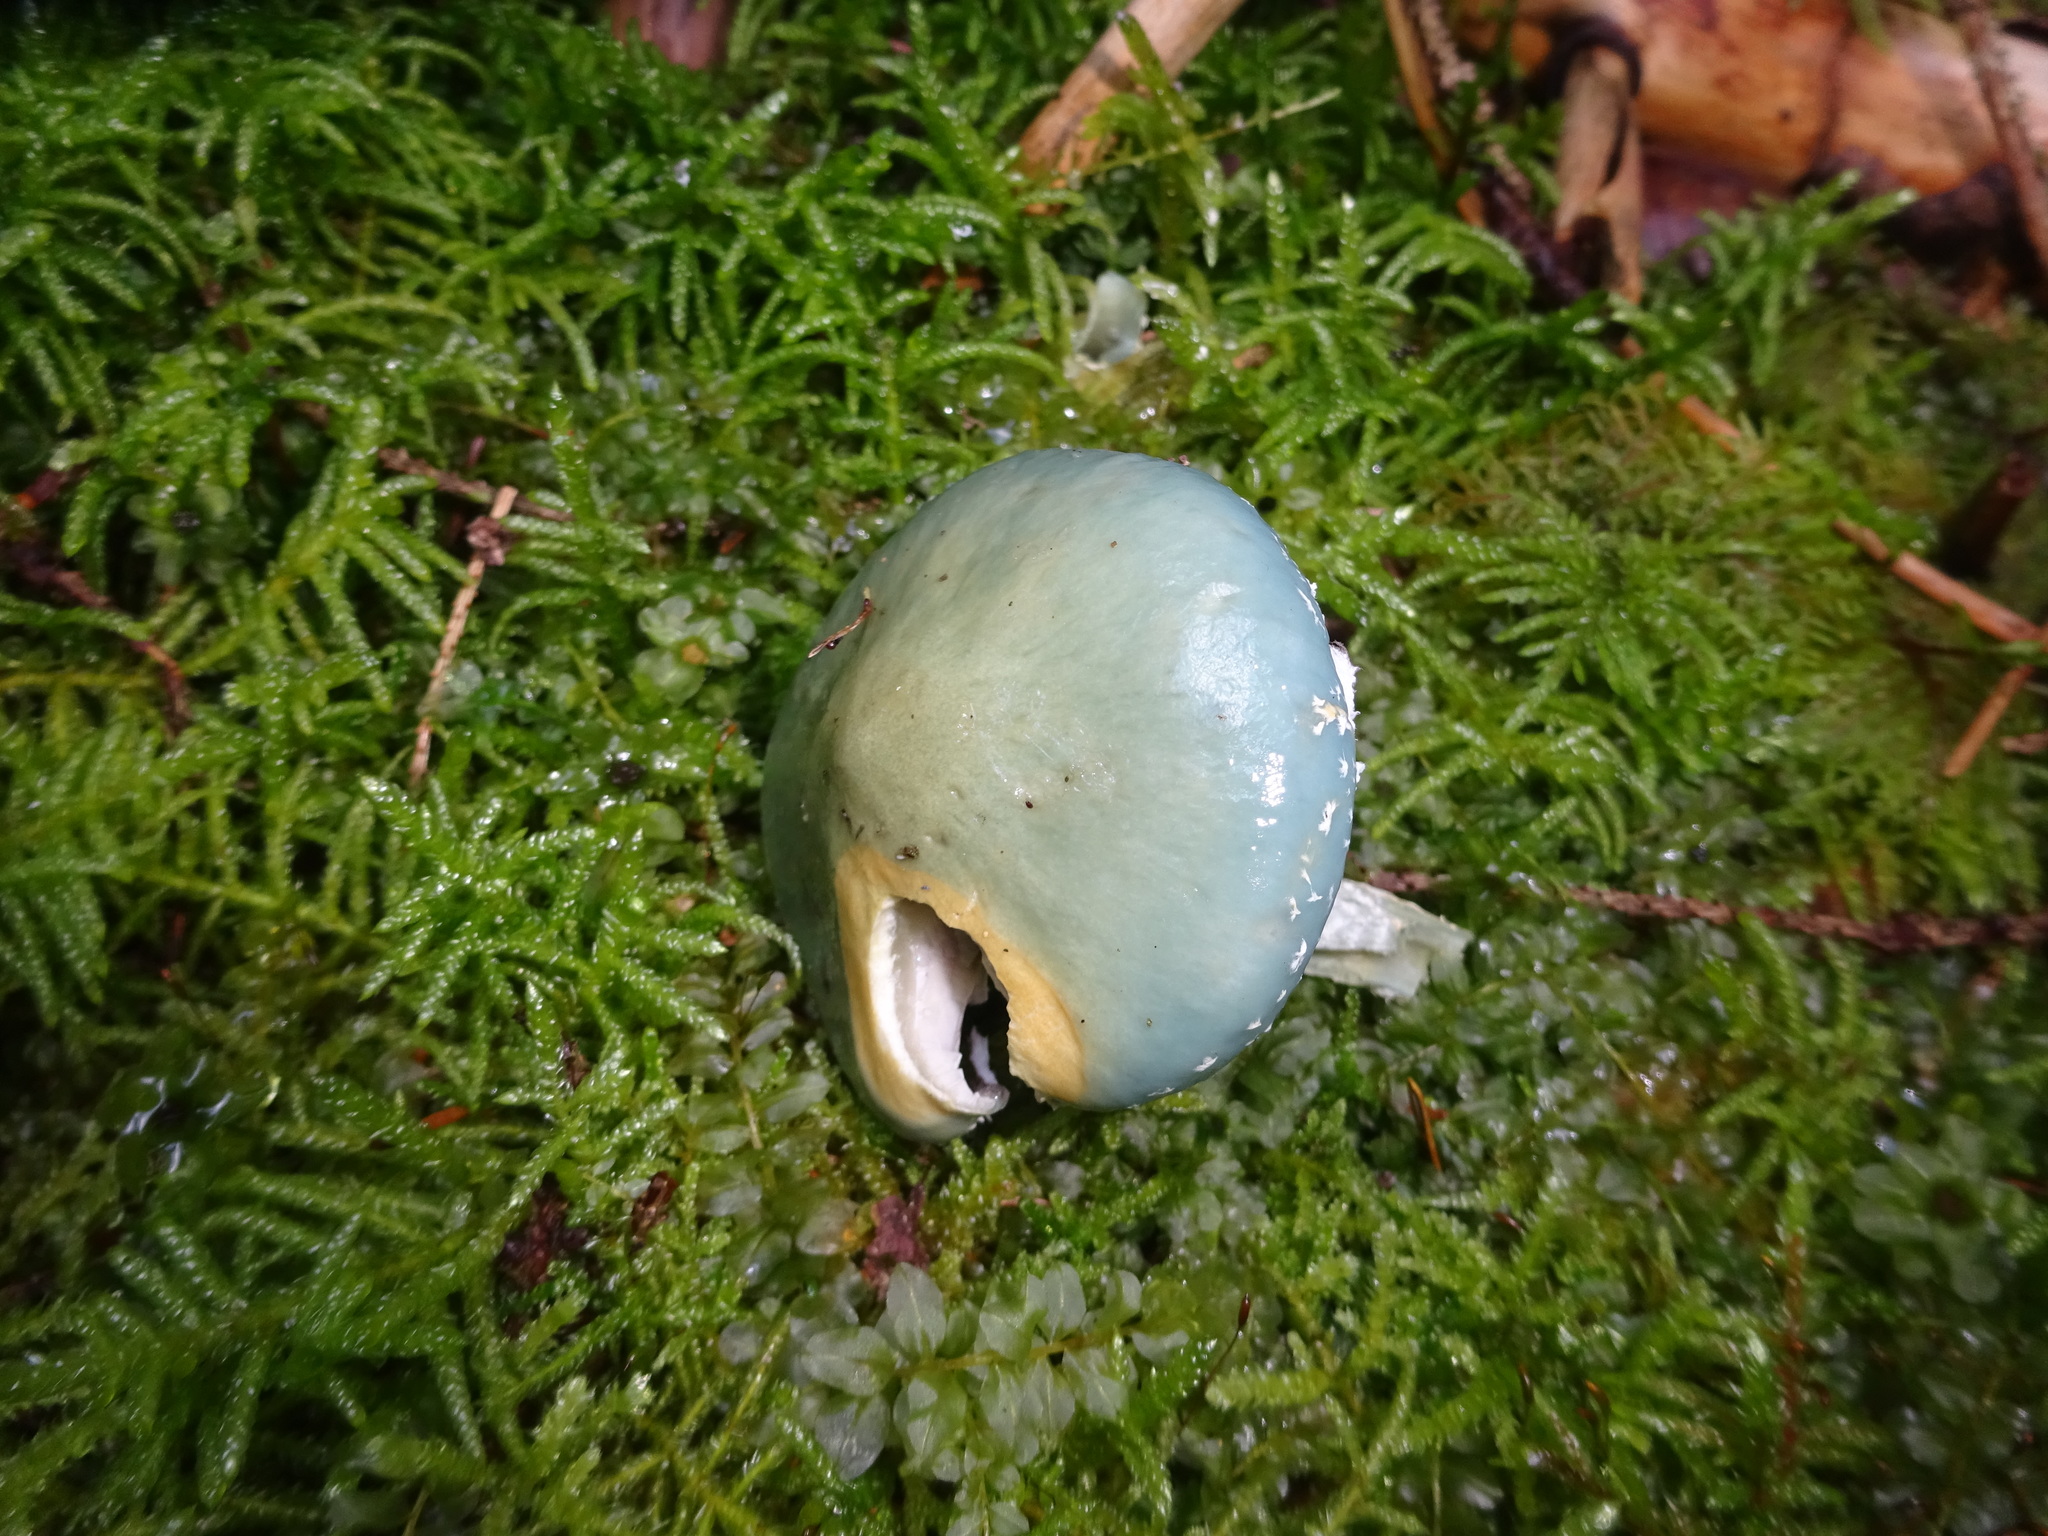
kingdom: Fungi
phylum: Basidiomycota
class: Agaricomycetes
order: Agaricales
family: Strophariaceae
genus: Stropharia
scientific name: Stropharia aeruginosa
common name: Verdigris roundhead
